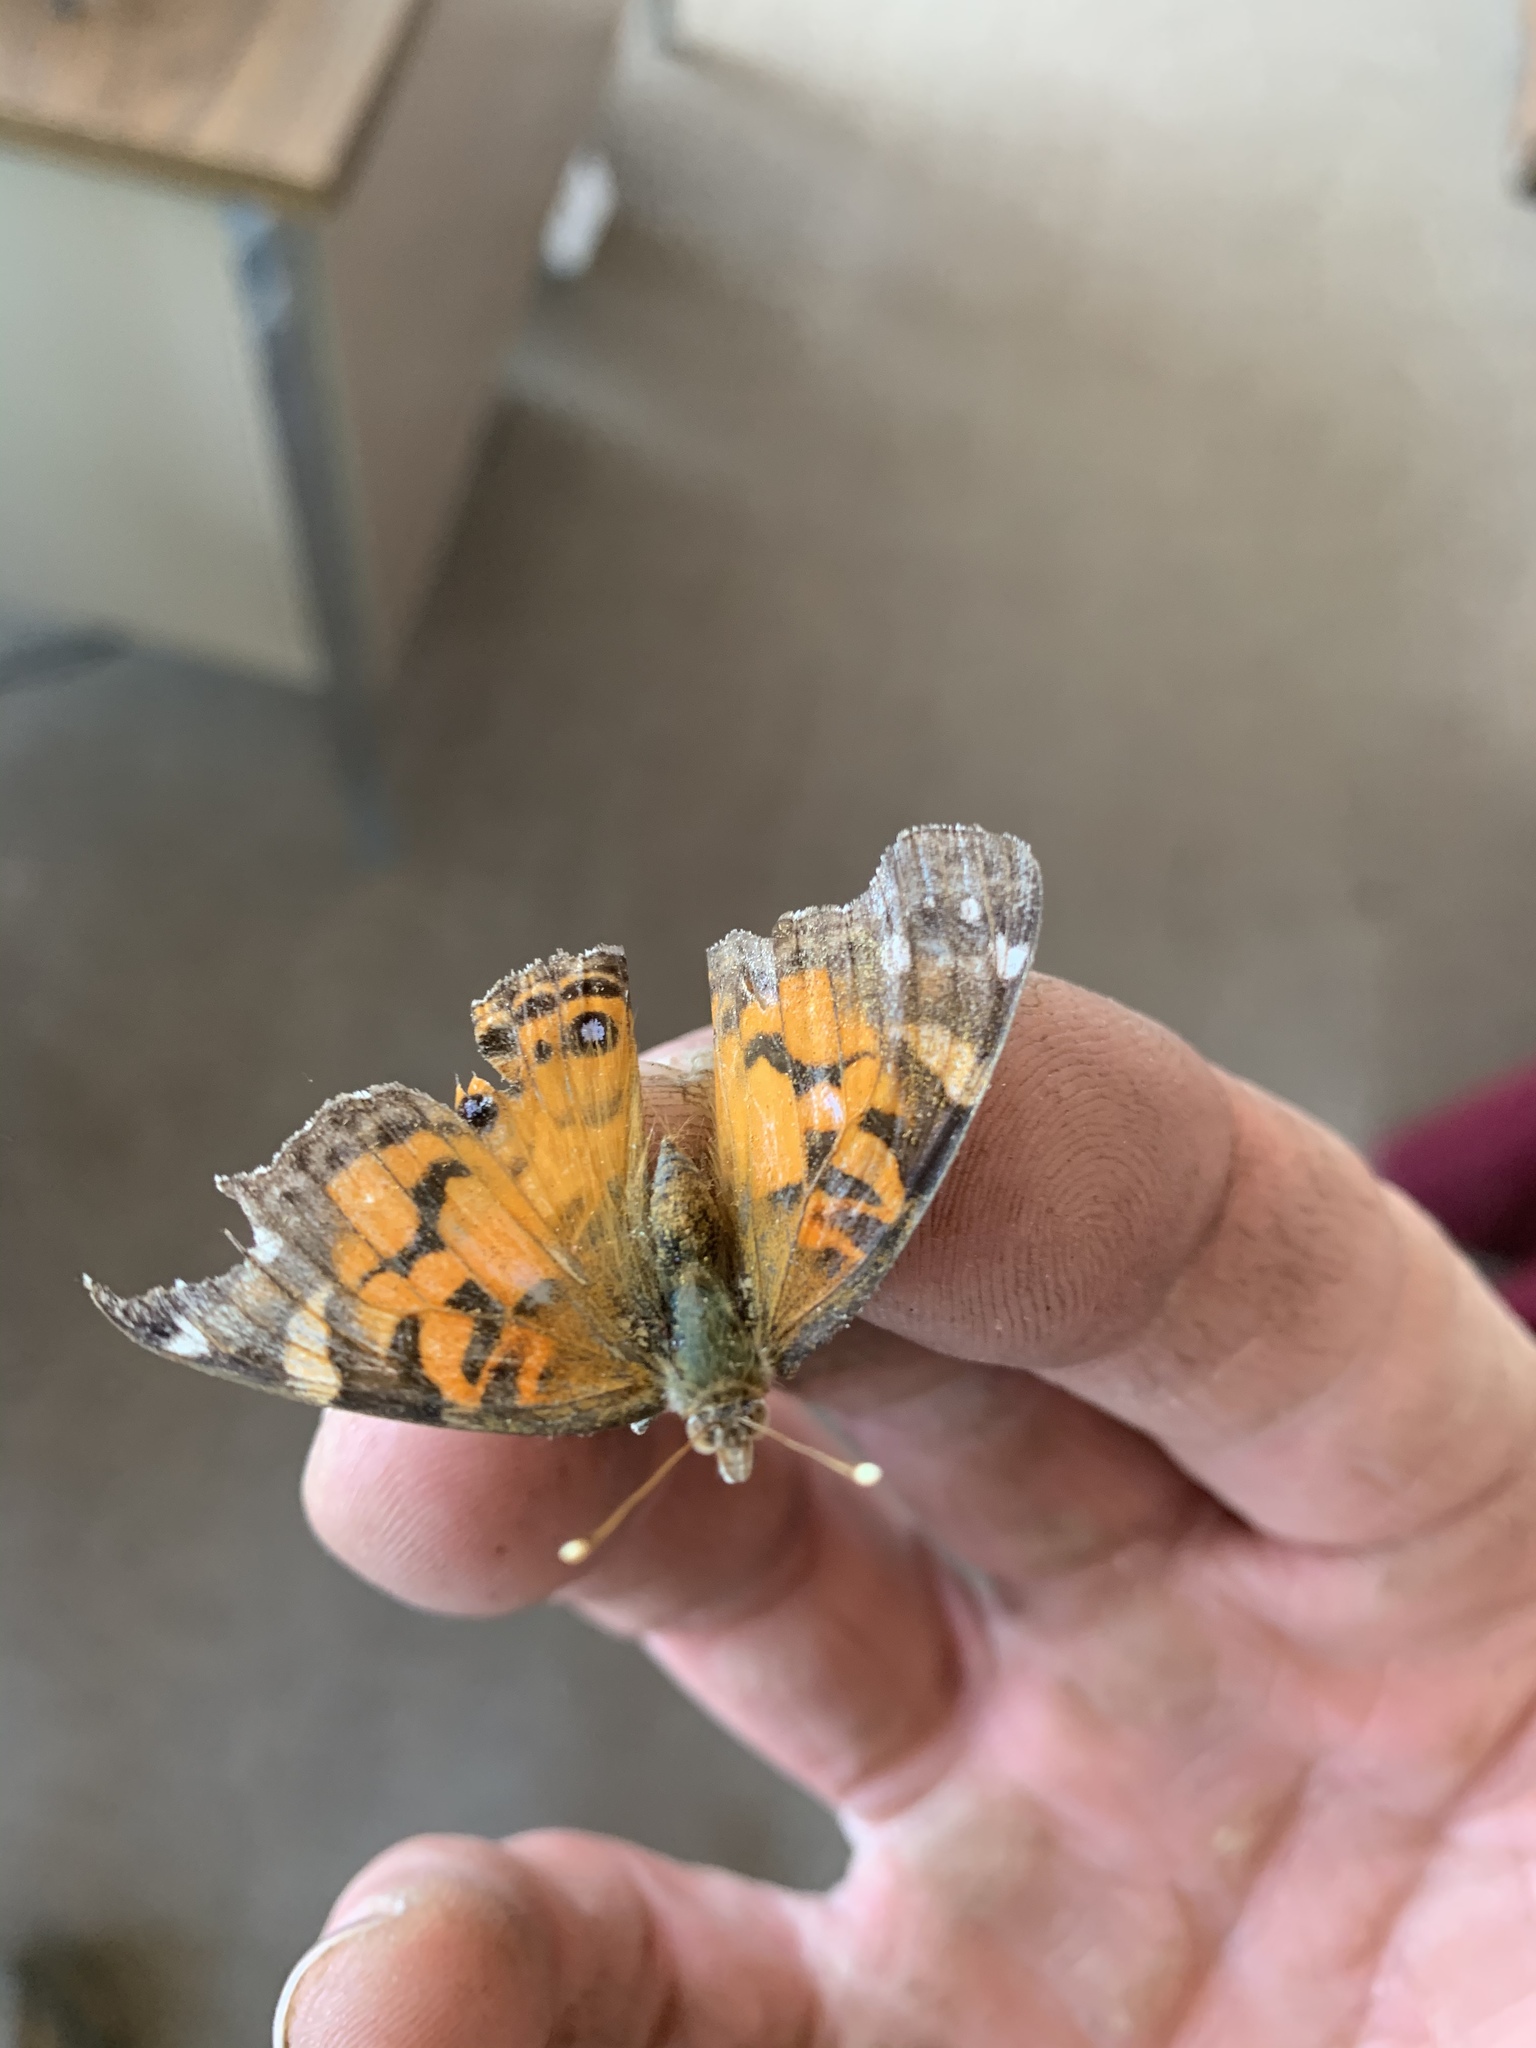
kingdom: Animalia
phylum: Arthropoda
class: Insecta
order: Lepidoptera
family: Nymphalidae
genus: Vanessa
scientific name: Vanessa virginiensis
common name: American lady
